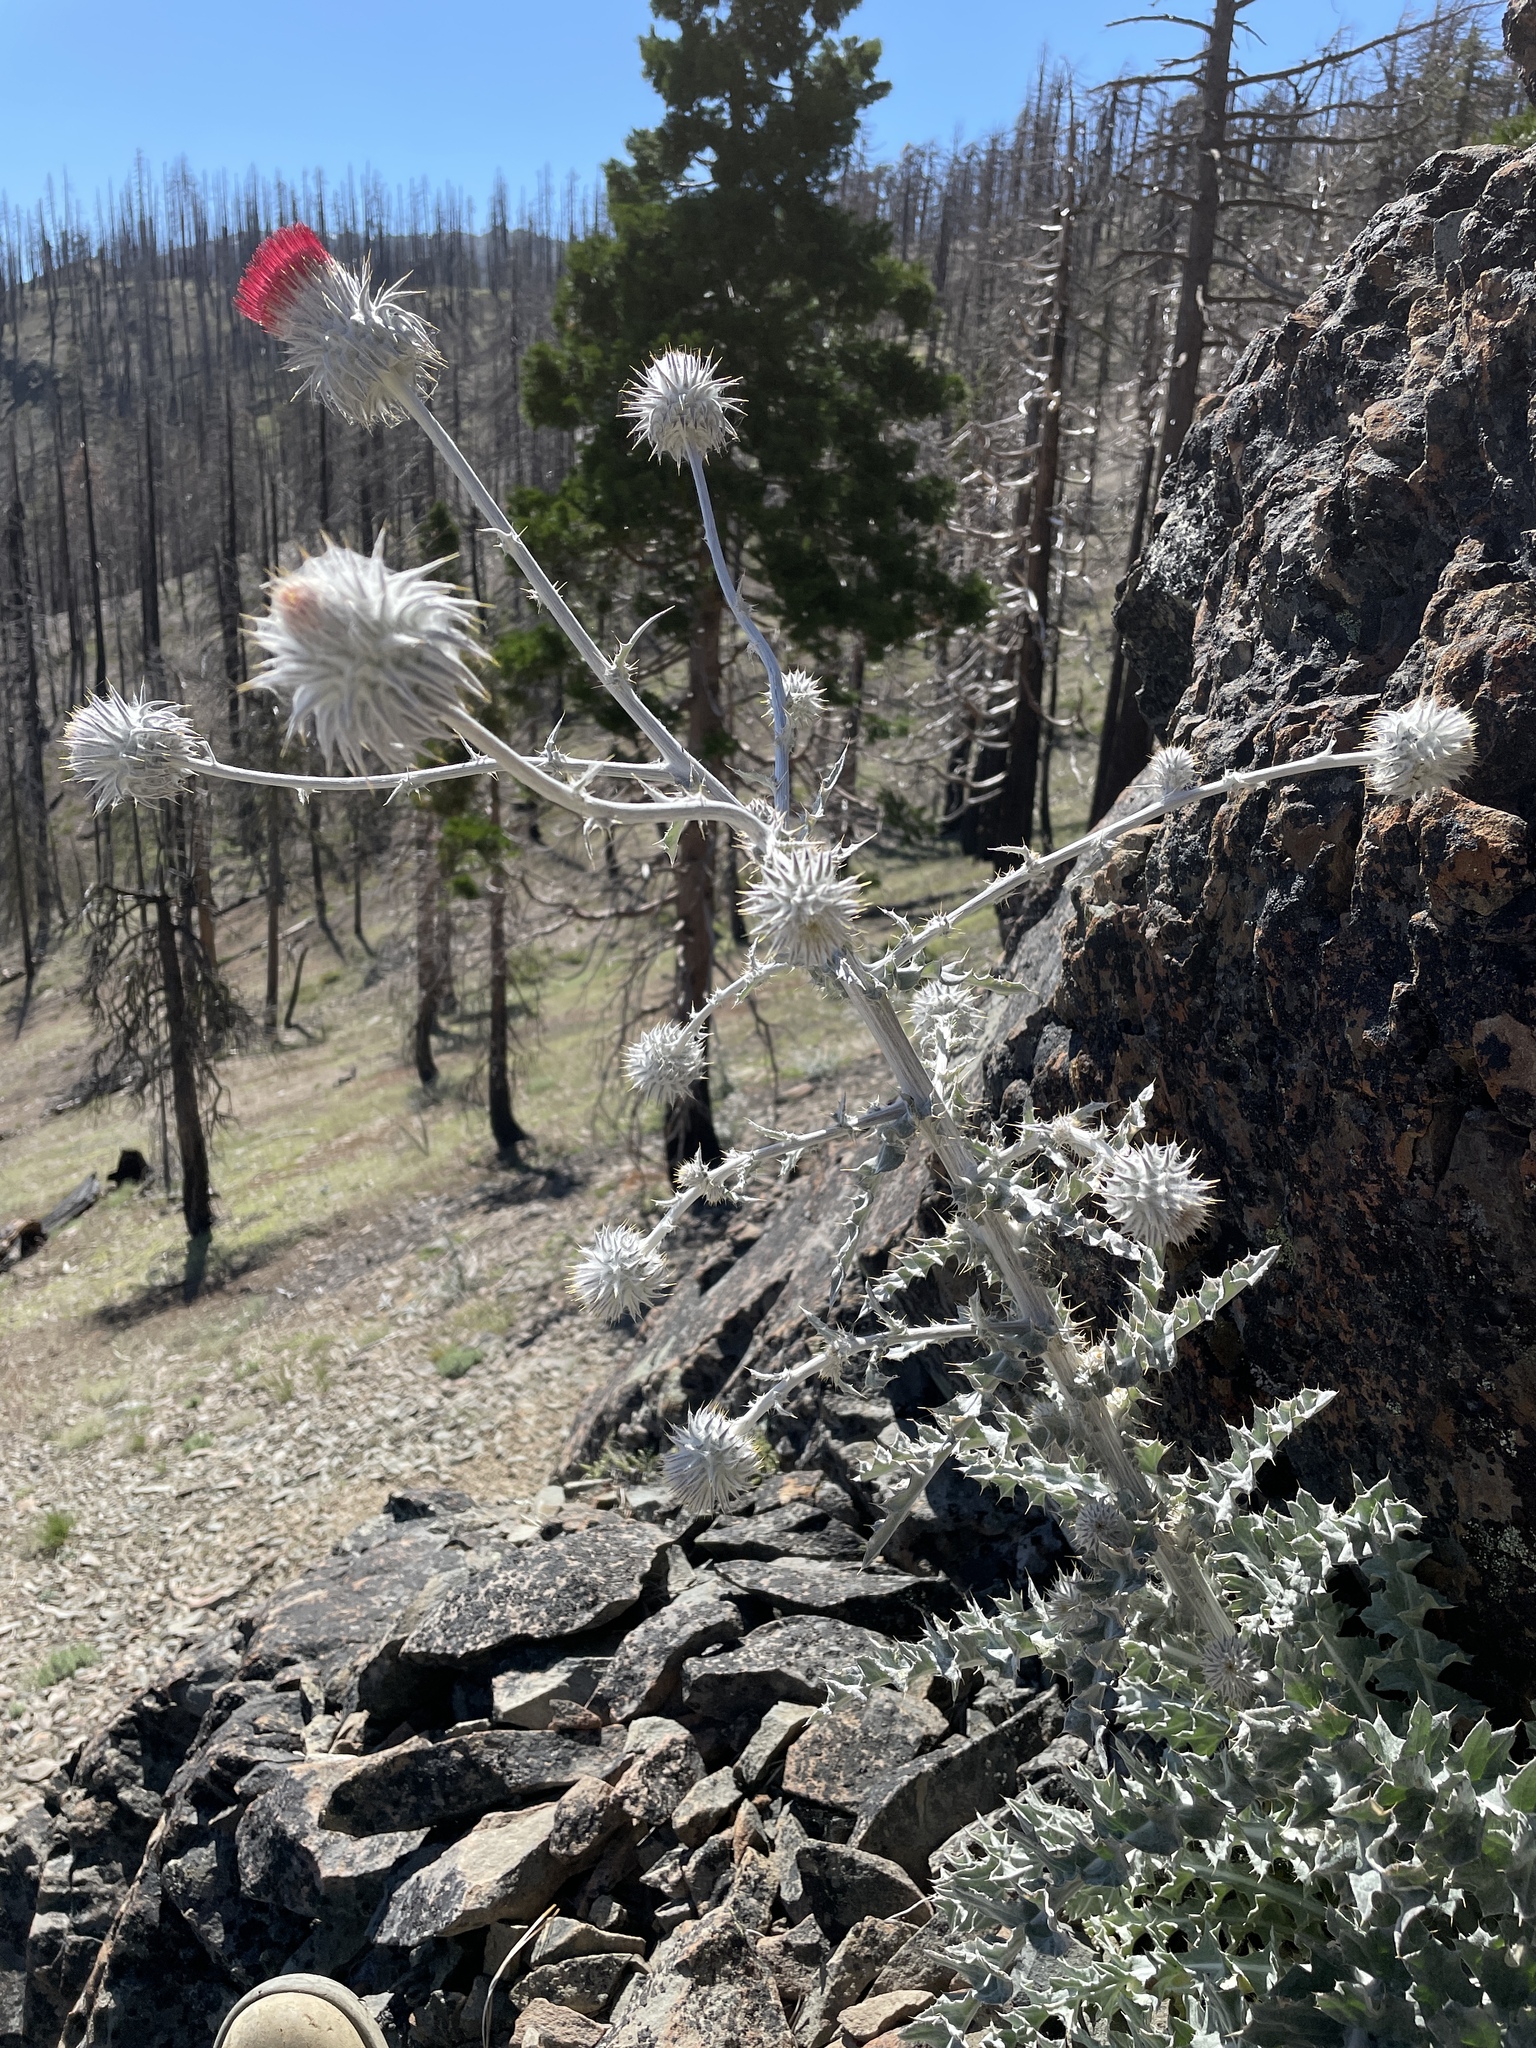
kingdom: Plantae
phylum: Tracheophyta
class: Magnoliopsida
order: Asterales
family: Asteraceae
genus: Cirsium
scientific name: Cirsium occidentale
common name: Western thistle
